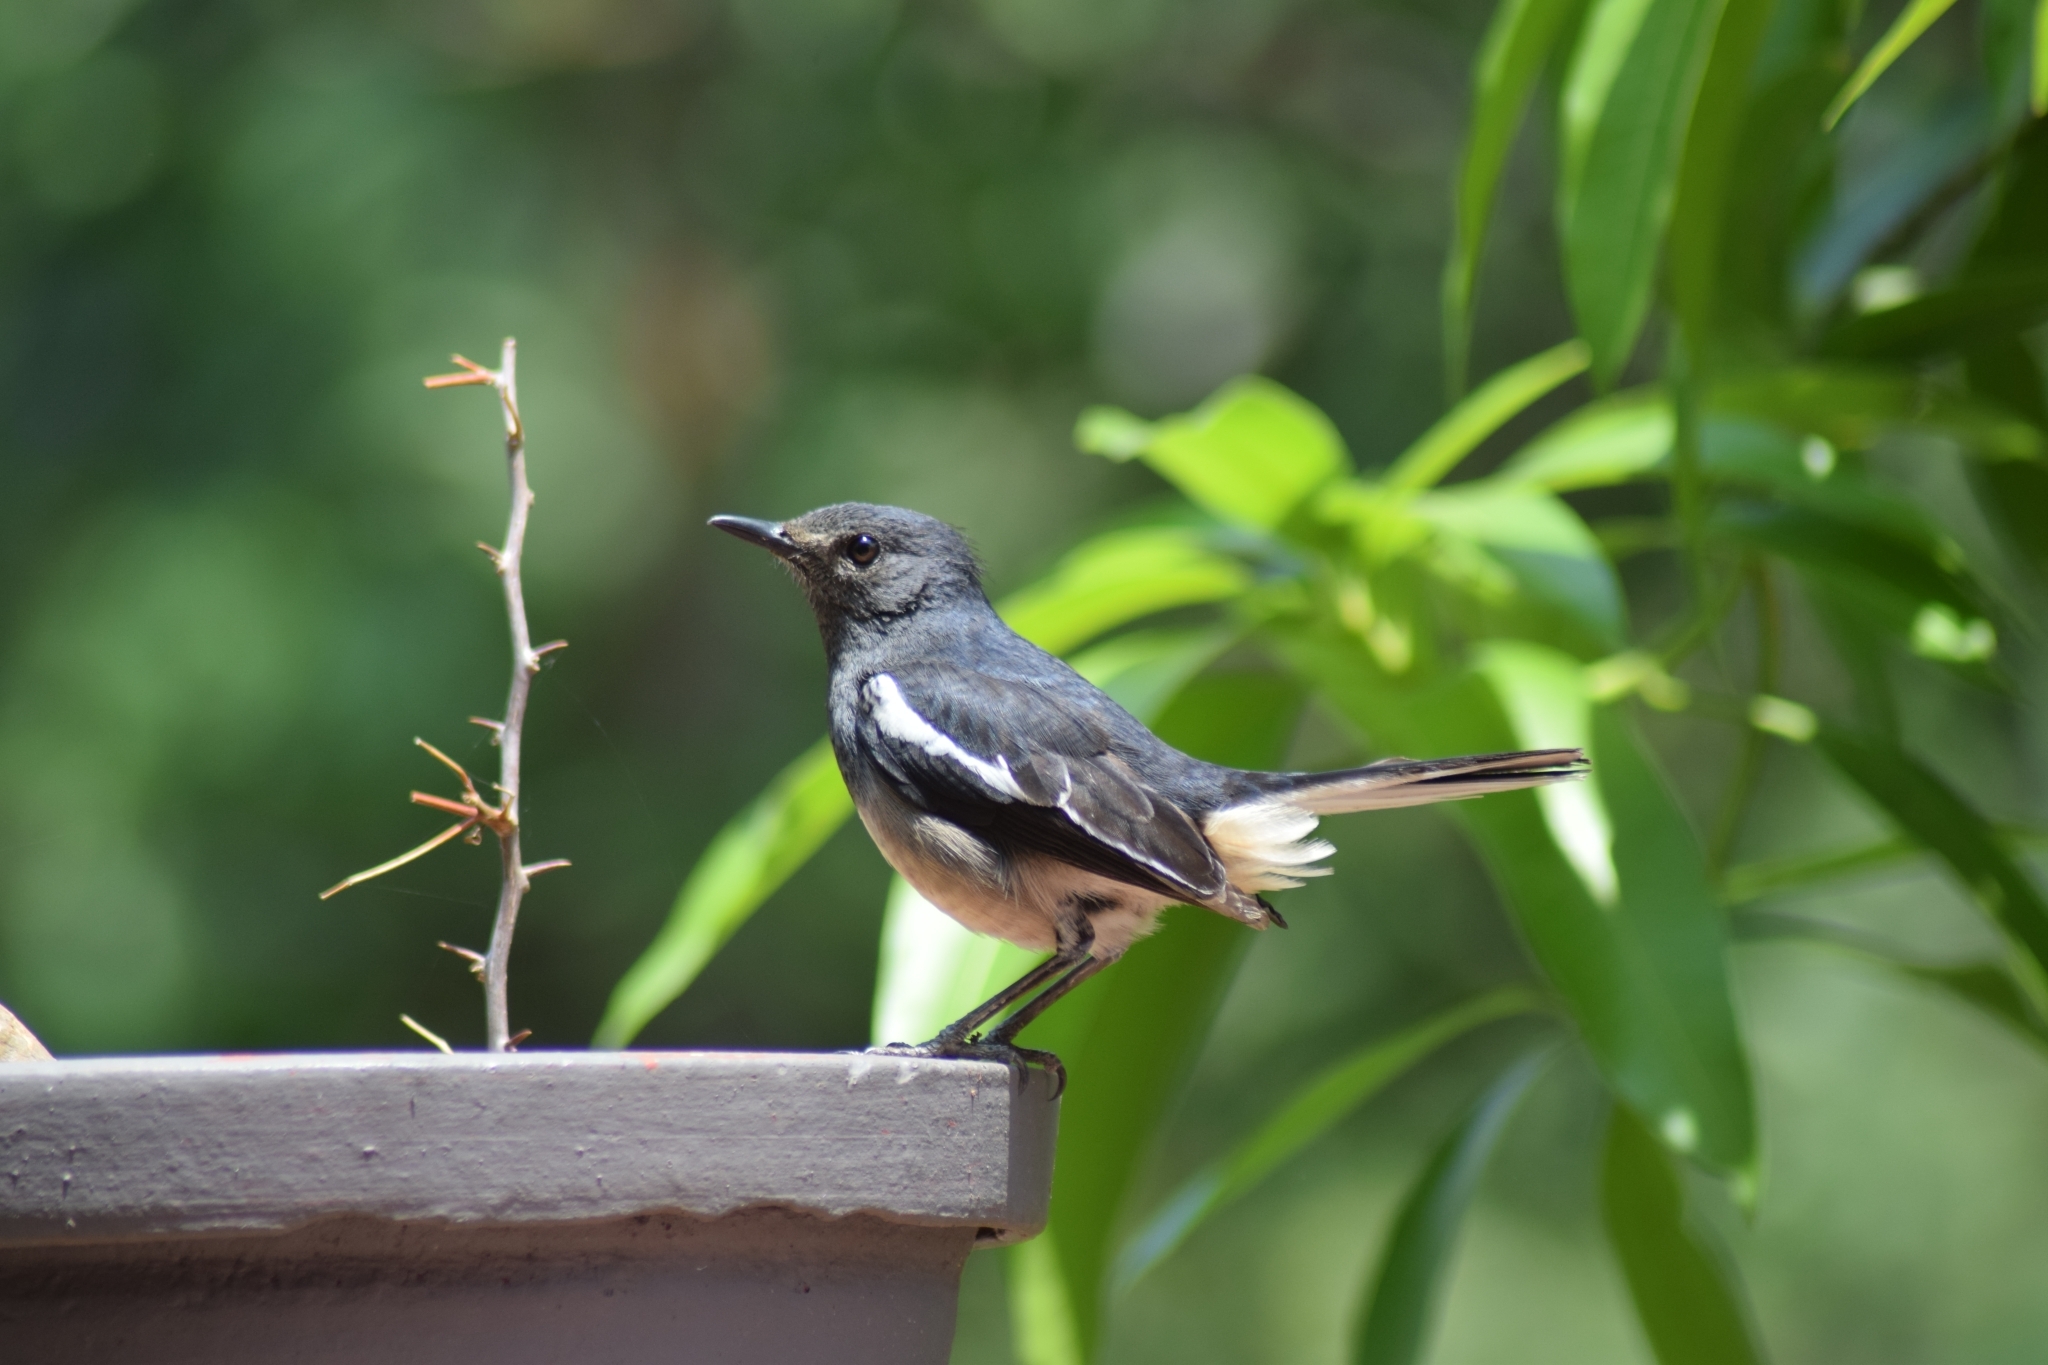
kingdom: Animalia
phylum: Chordata
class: Aves
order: Passeriformes
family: Muscicapidae
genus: Copsychus
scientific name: Copsychus saularis
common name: Oriental magpie-robin
